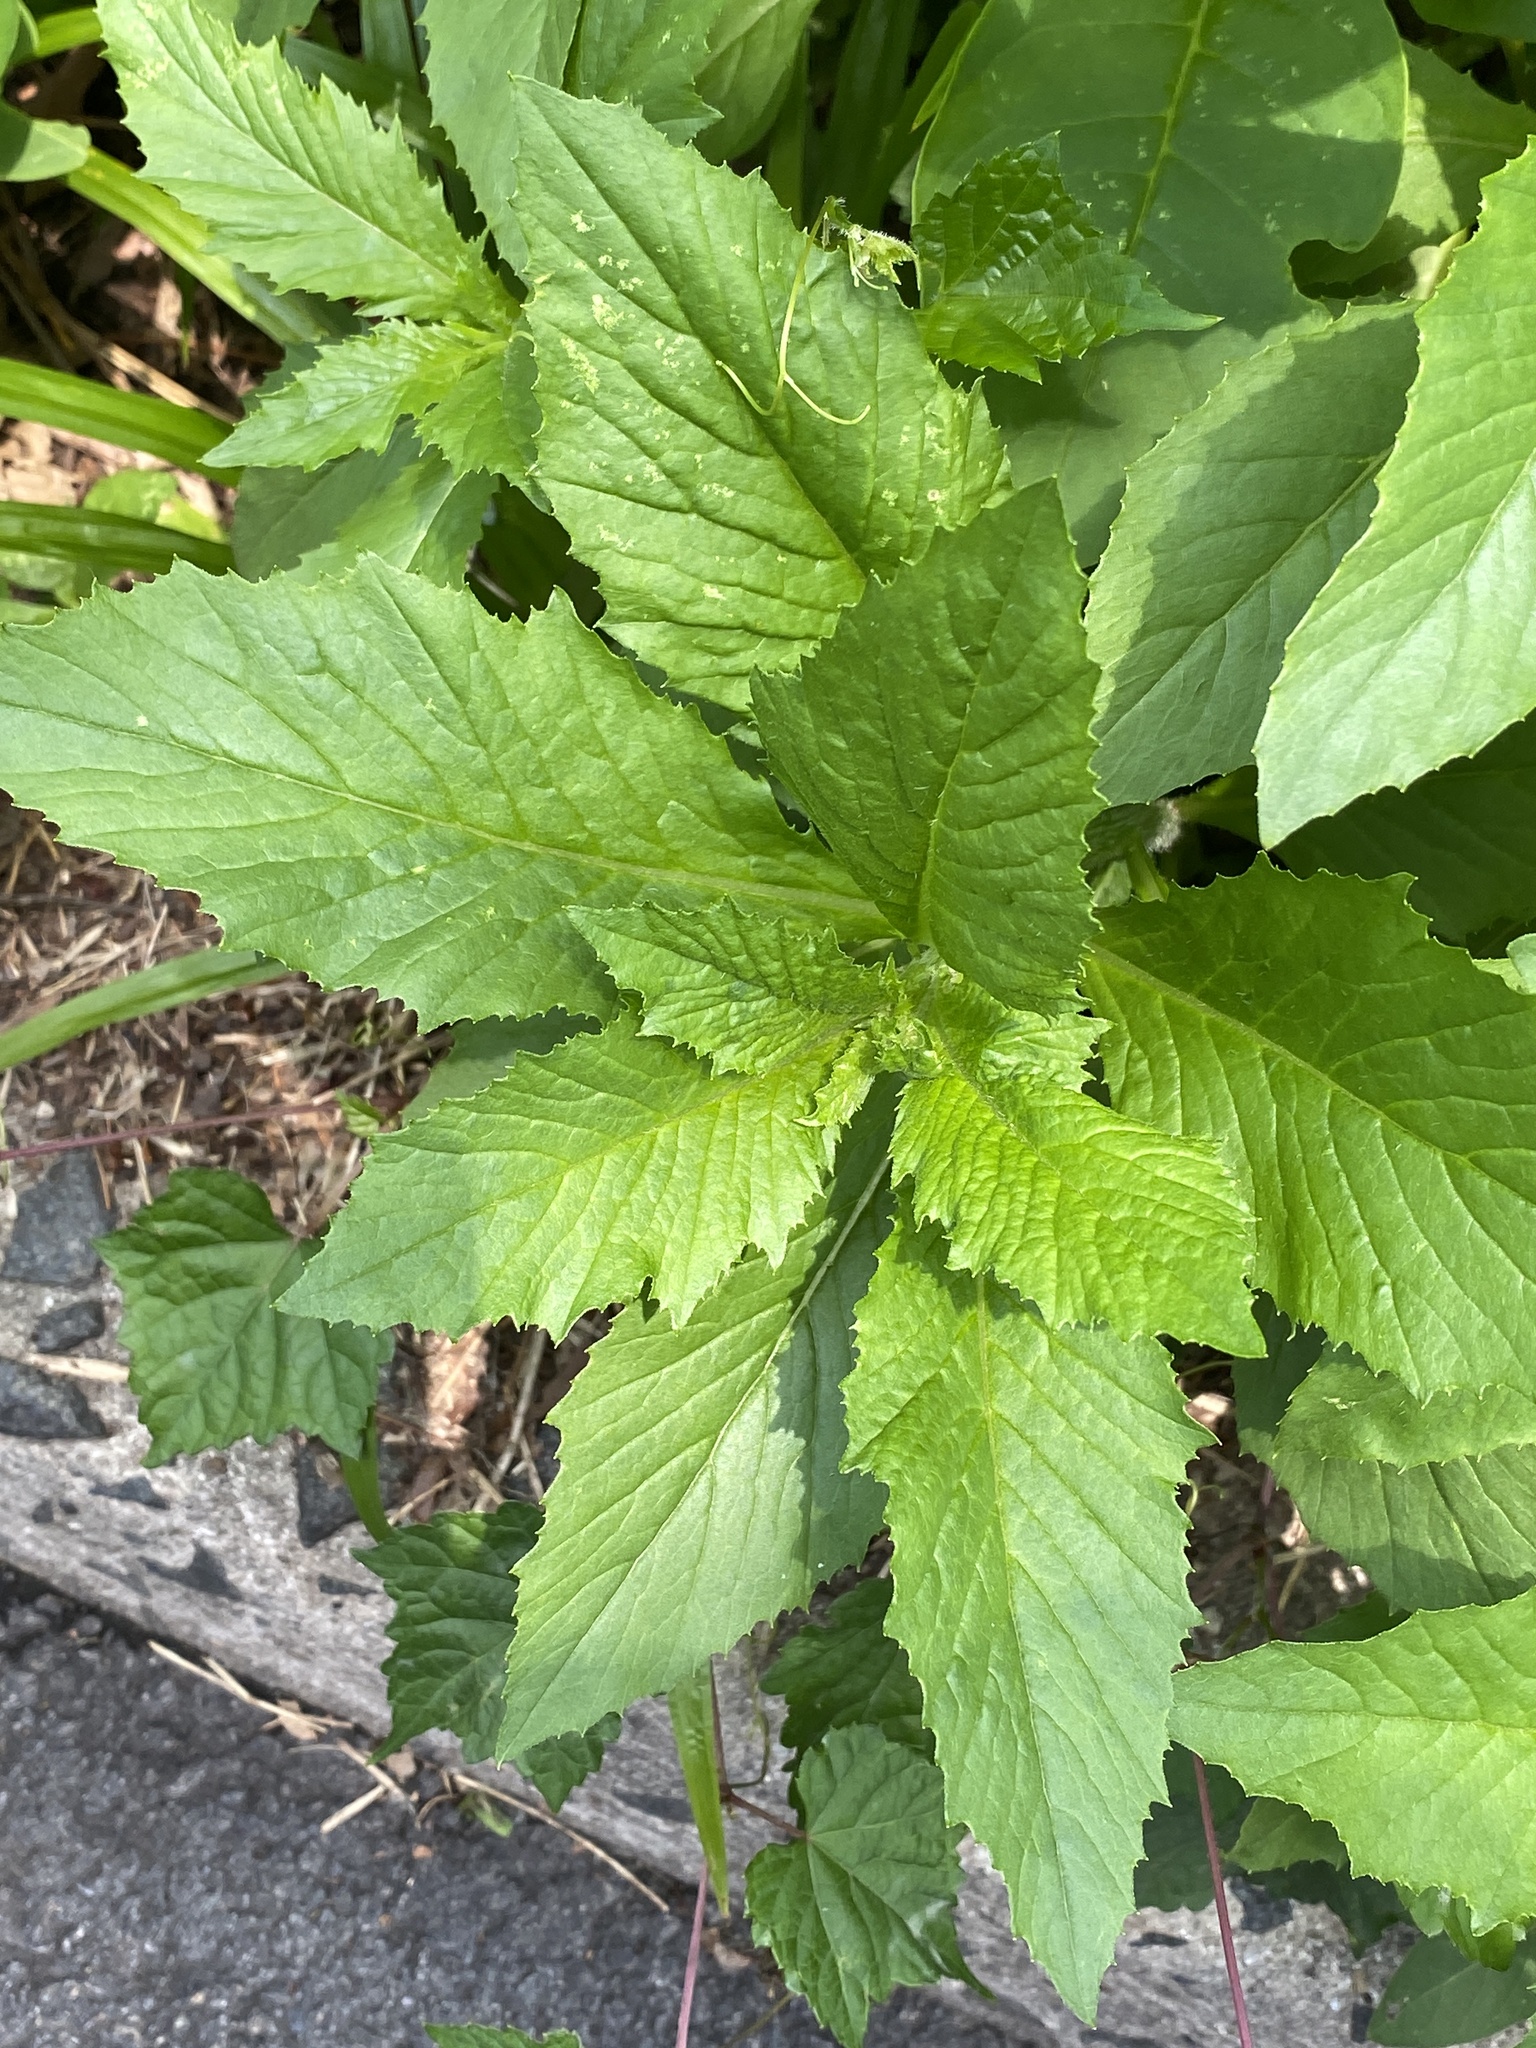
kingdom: Plantae
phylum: Tracheophyta
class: Magnoliopsida
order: Asterales
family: Asteraceae
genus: Erechtites
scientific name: Erechtites hieraciifolius
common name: American burnweed
